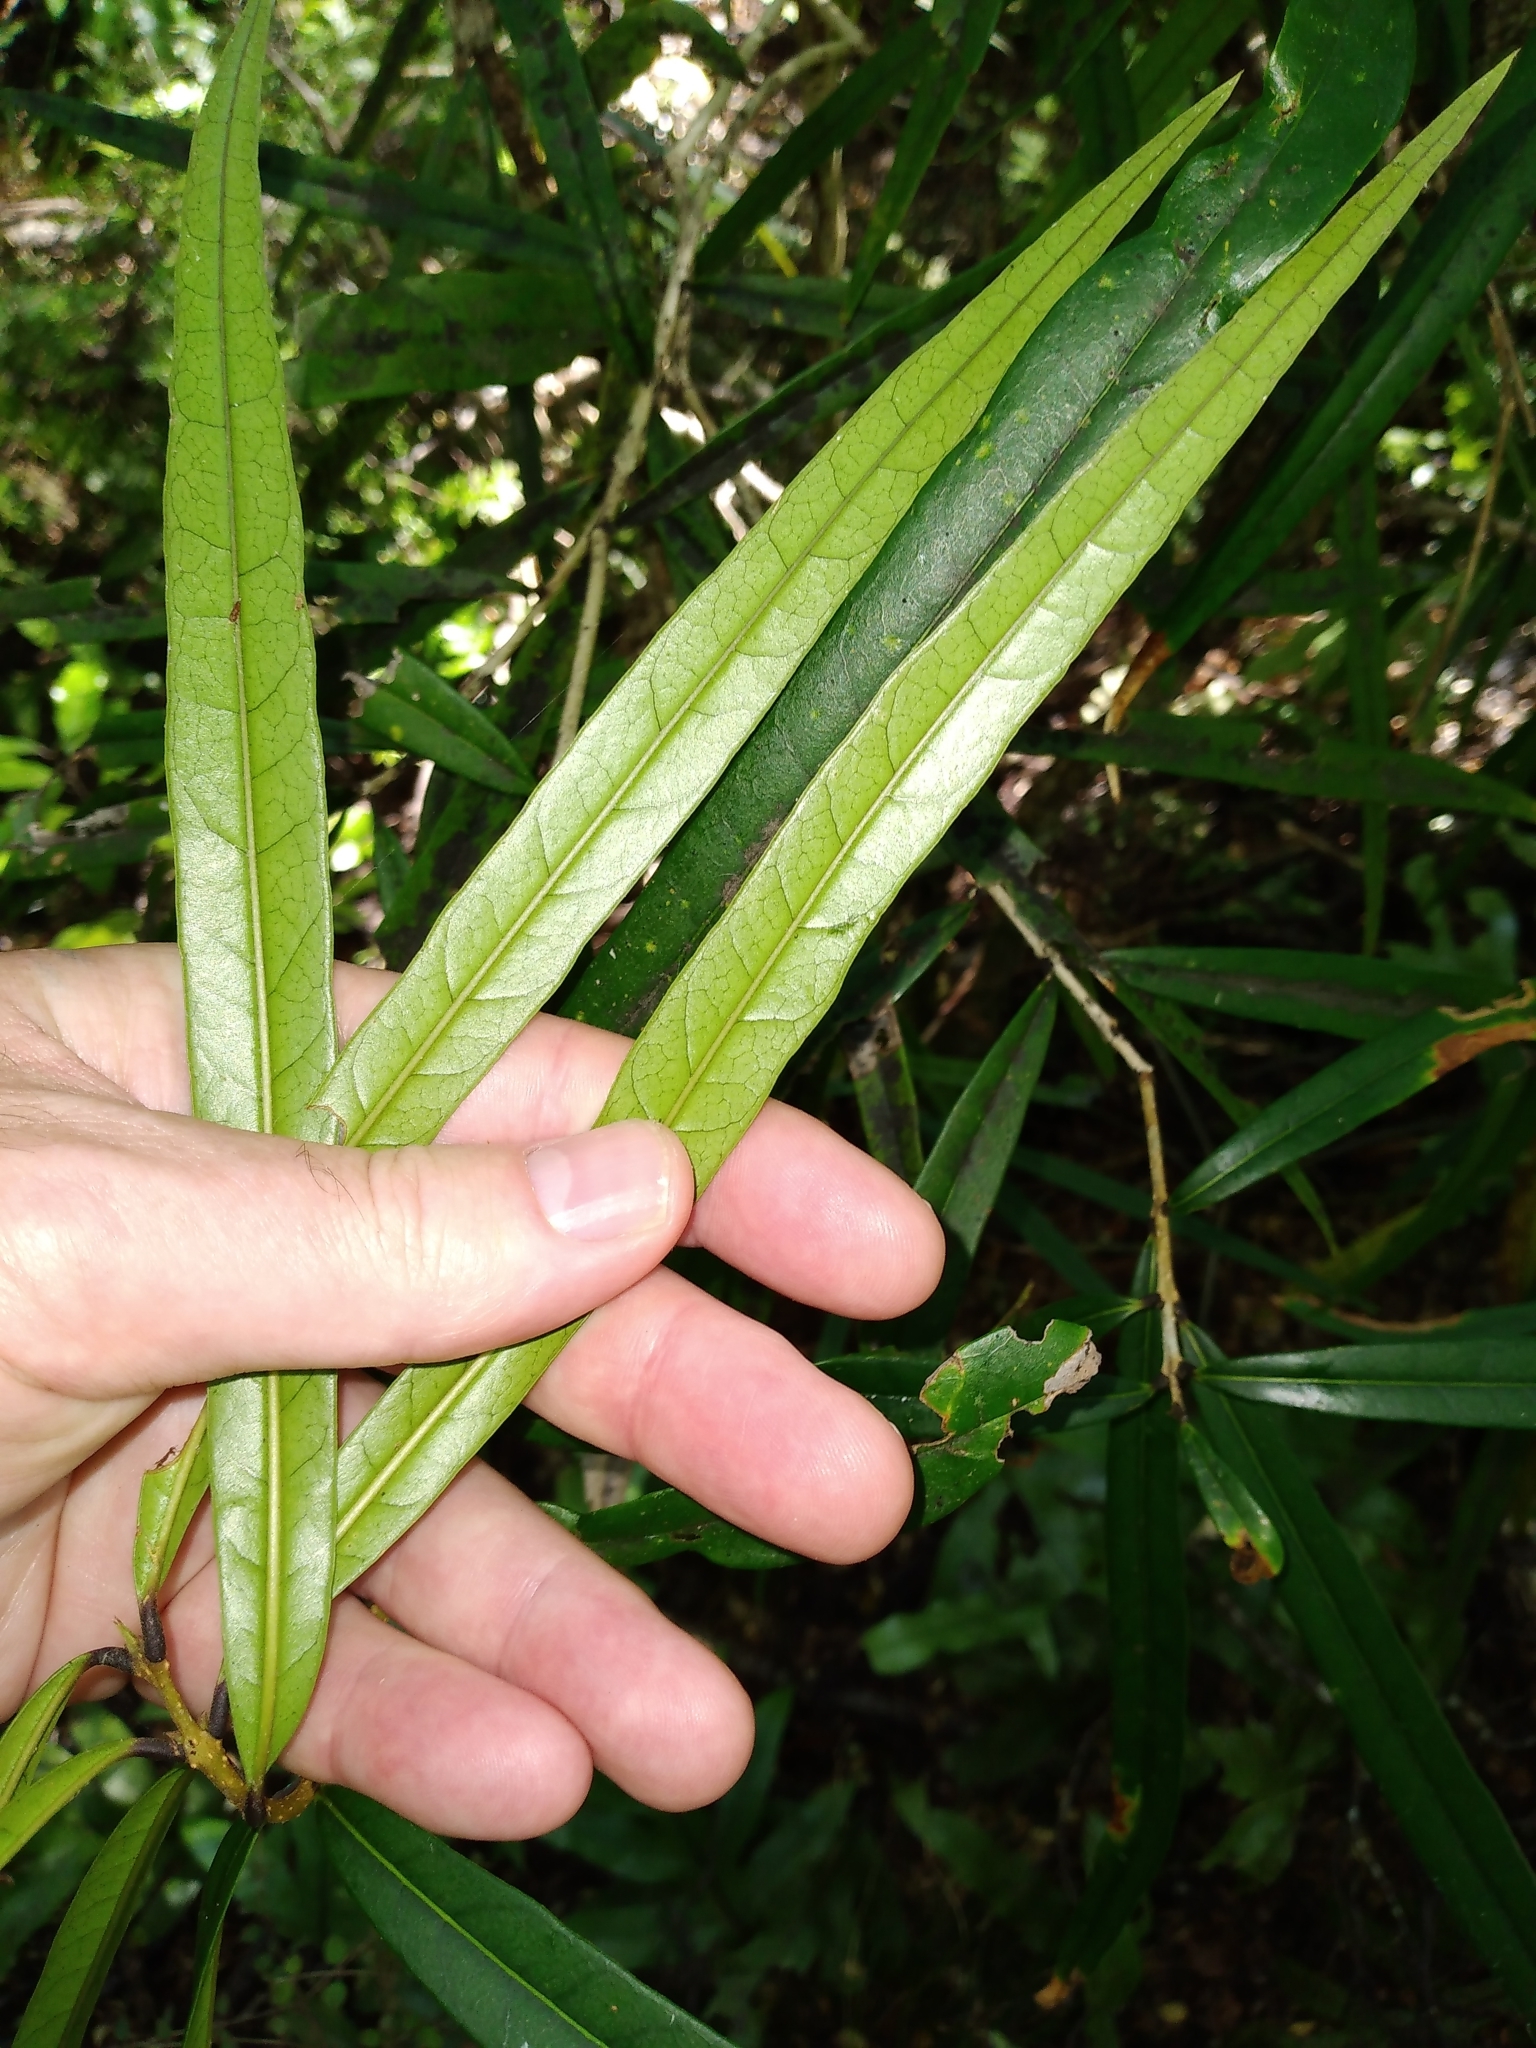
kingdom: Plantae
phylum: Tracheophyta
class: Magnoliopsida
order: Lamiales
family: Oleaceae
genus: Nestegis
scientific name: Nestegis cunninghamii
